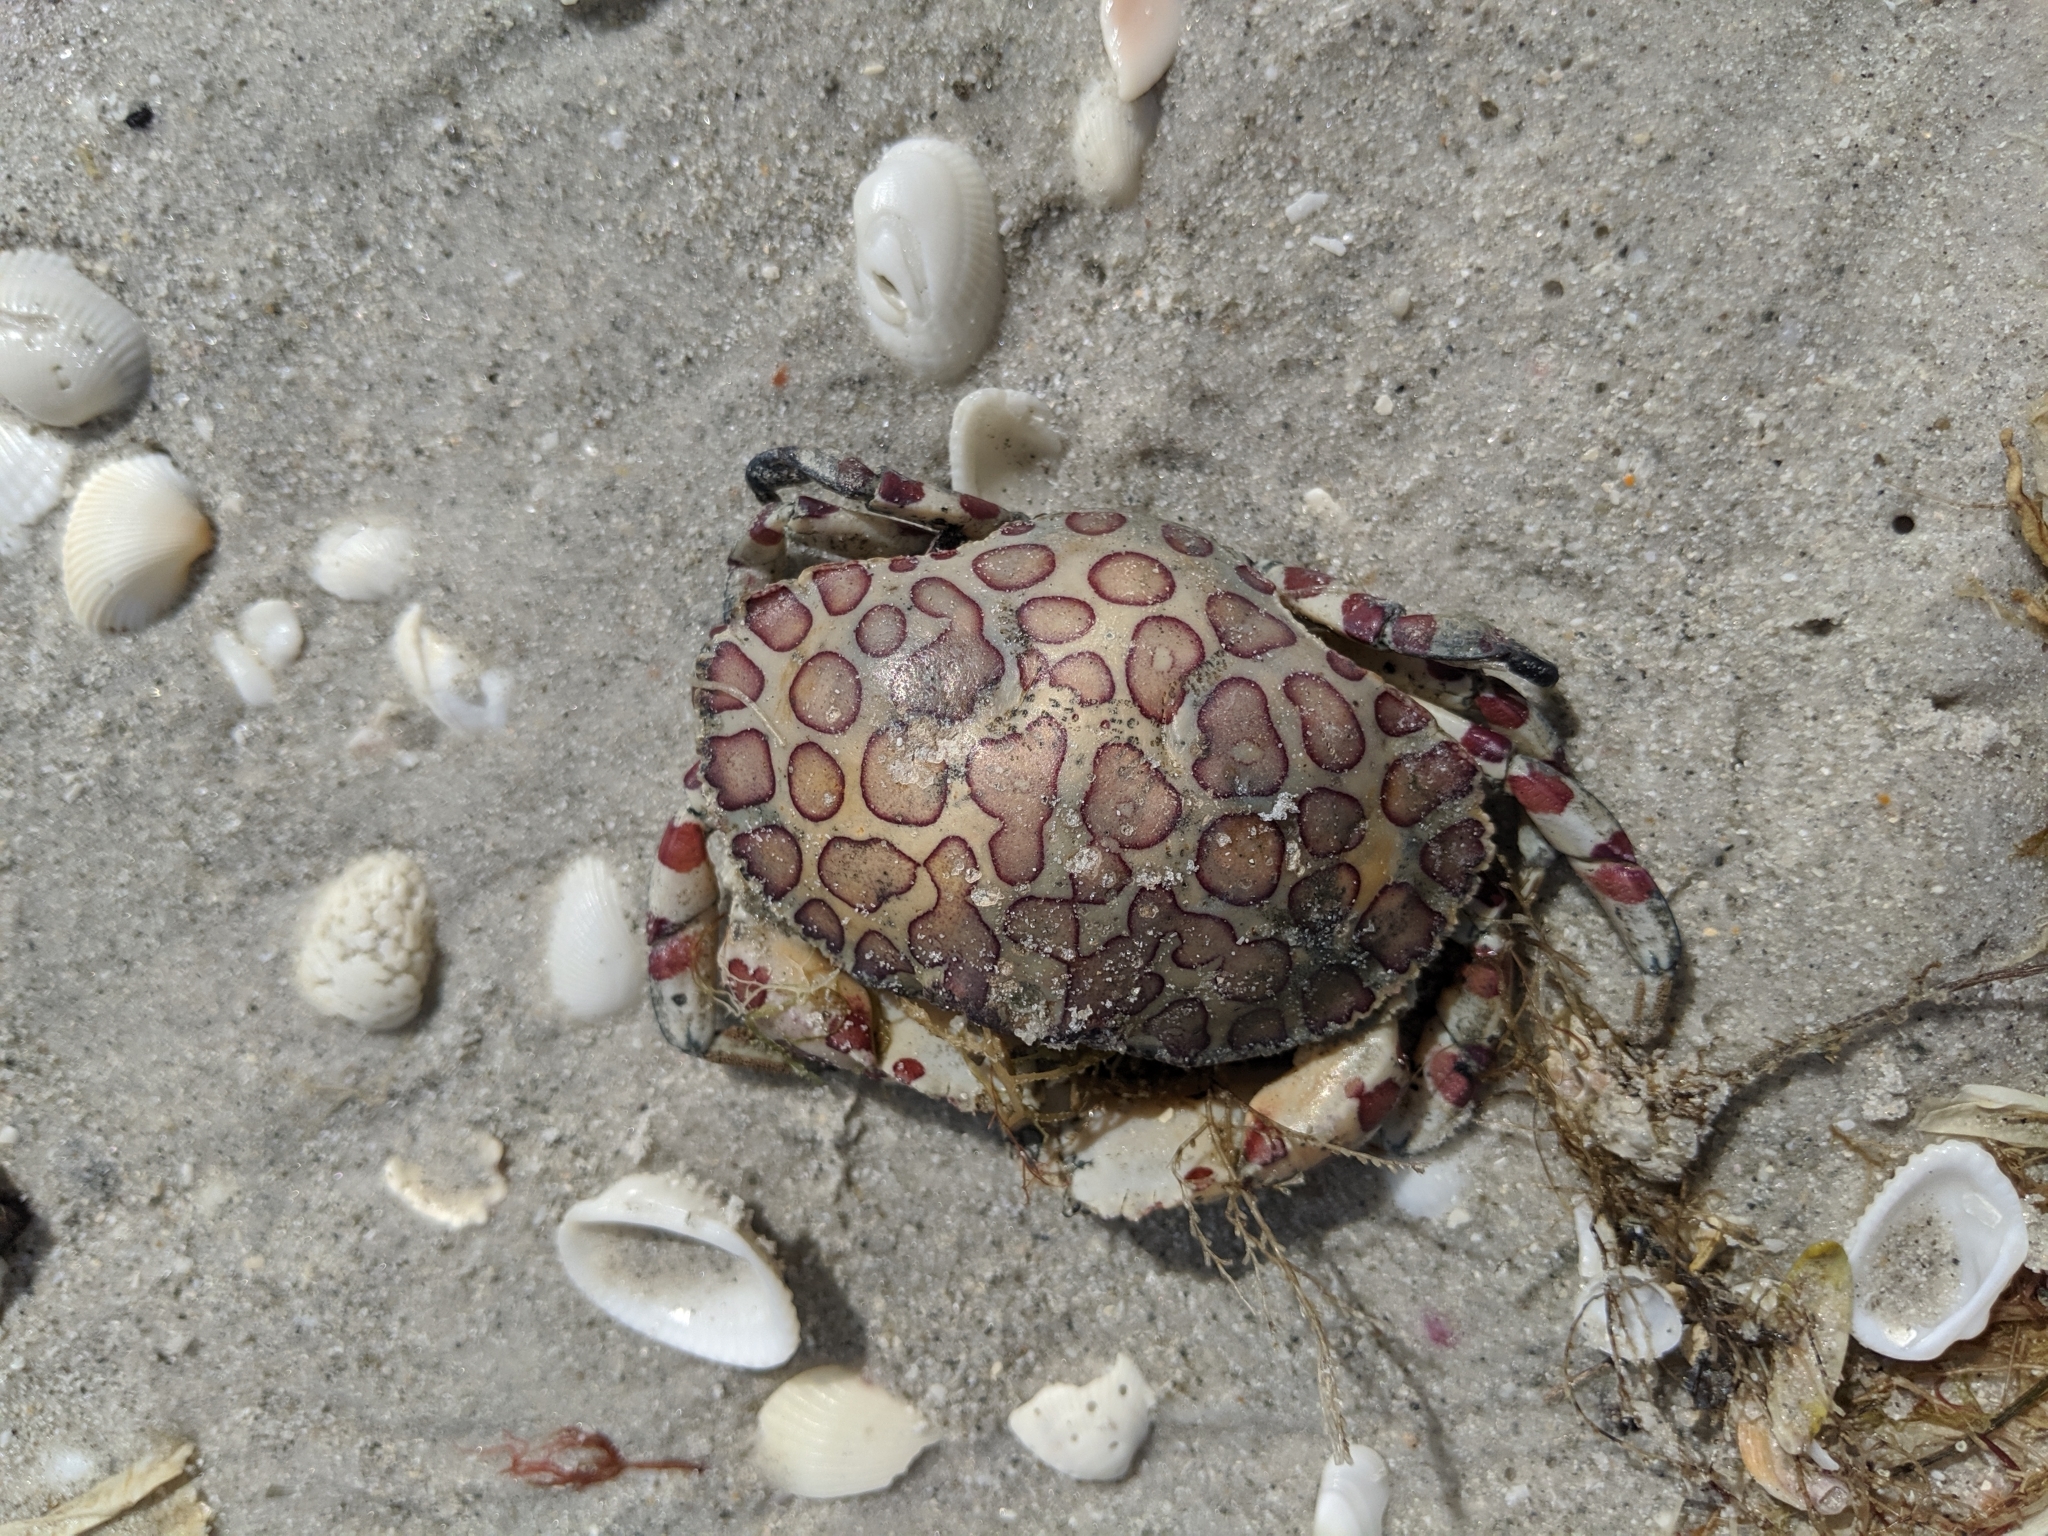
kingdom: Animalia
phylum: Arthropoda
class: Malacostraca
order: Decapoda
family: Aethridae
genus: Hepatus
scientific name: Hepatus epheliticus
